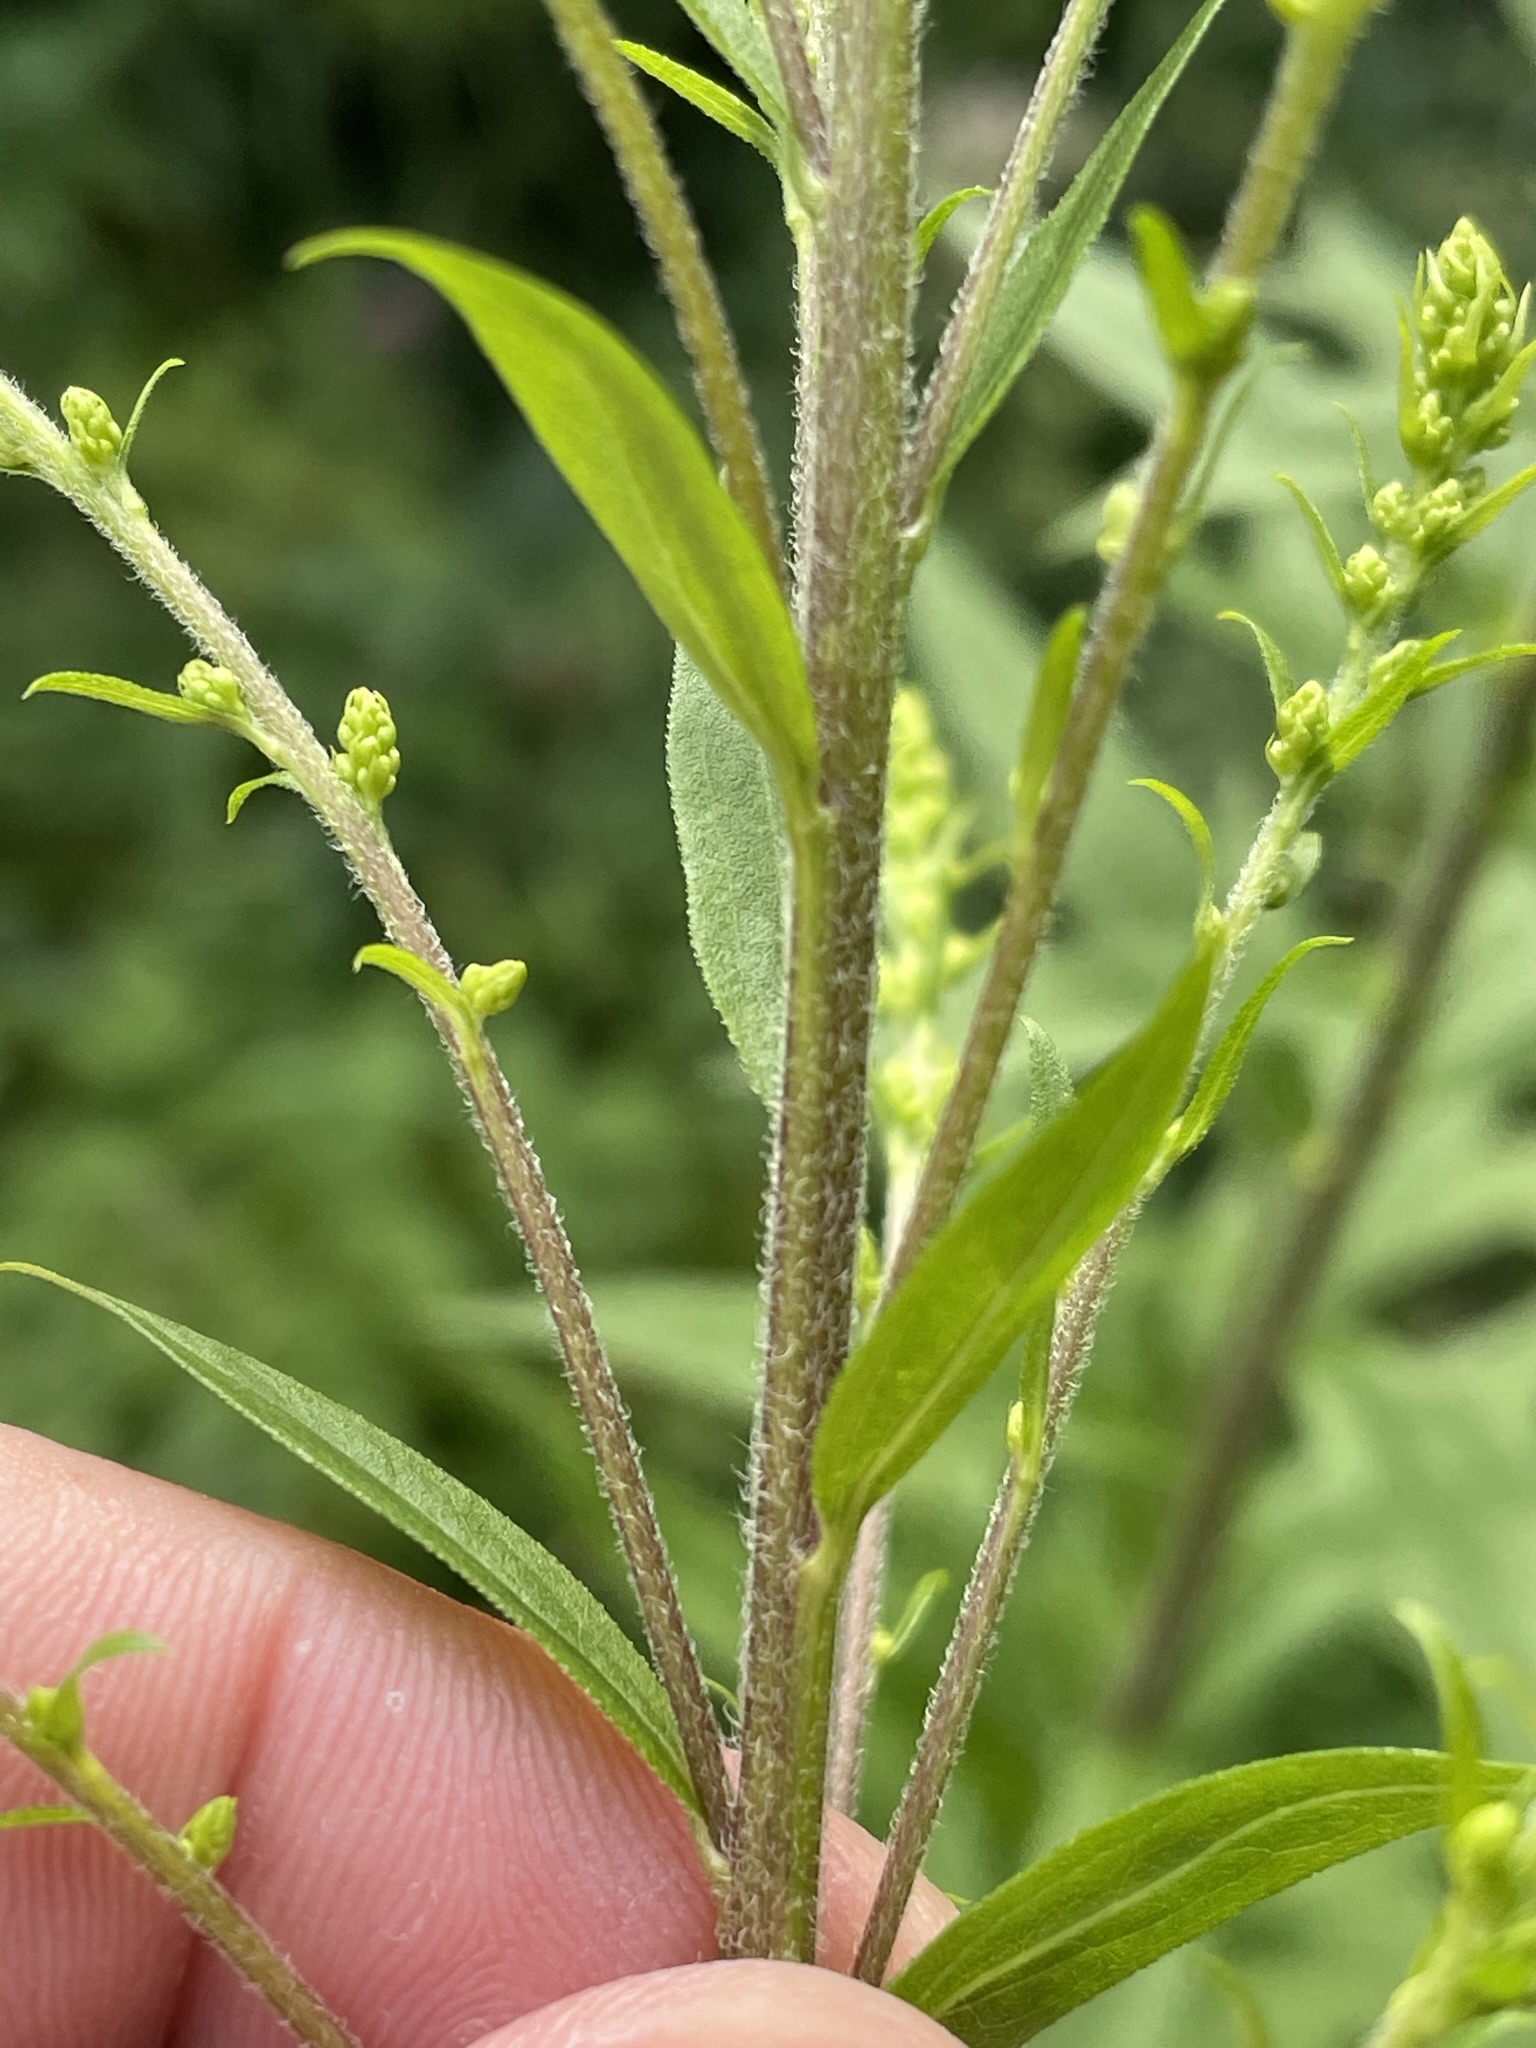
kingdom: Plantae
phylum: Tracheophyta
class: Magnoliopsida
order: Asterales
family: Asteraceae
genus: Solidago
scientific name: Solidago canadensis
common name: Canada goldenrod
